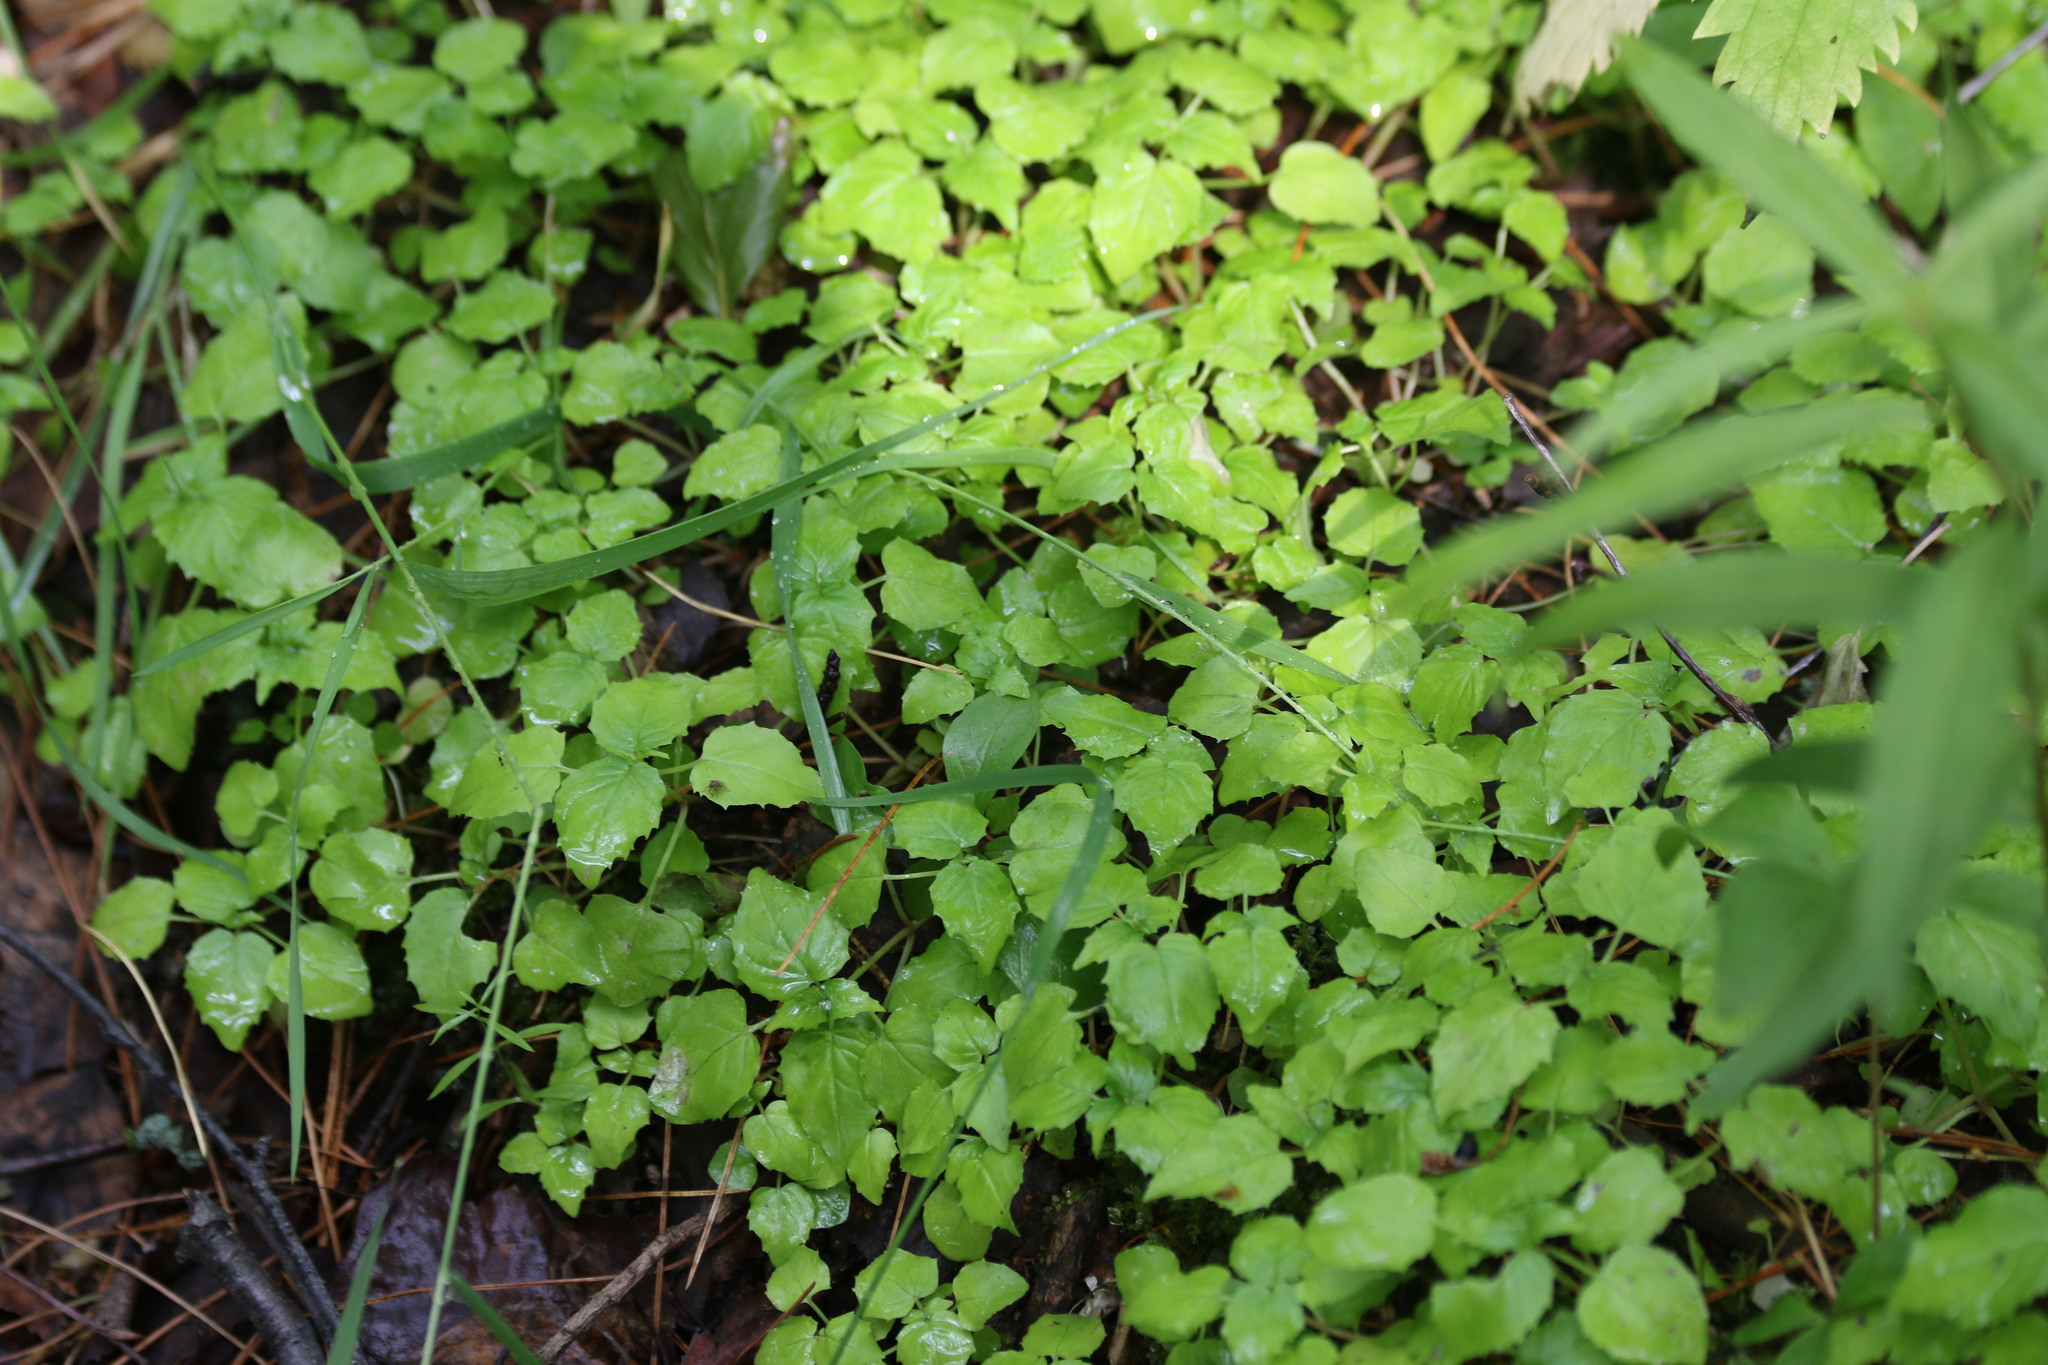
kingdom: Plantae
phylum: Tracheophyta
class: Magnoliopsida
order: Myrtales
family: Onagraceae
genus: Circaea
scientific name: Circaea alpina
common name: Alpine enchanter's-nightshade
